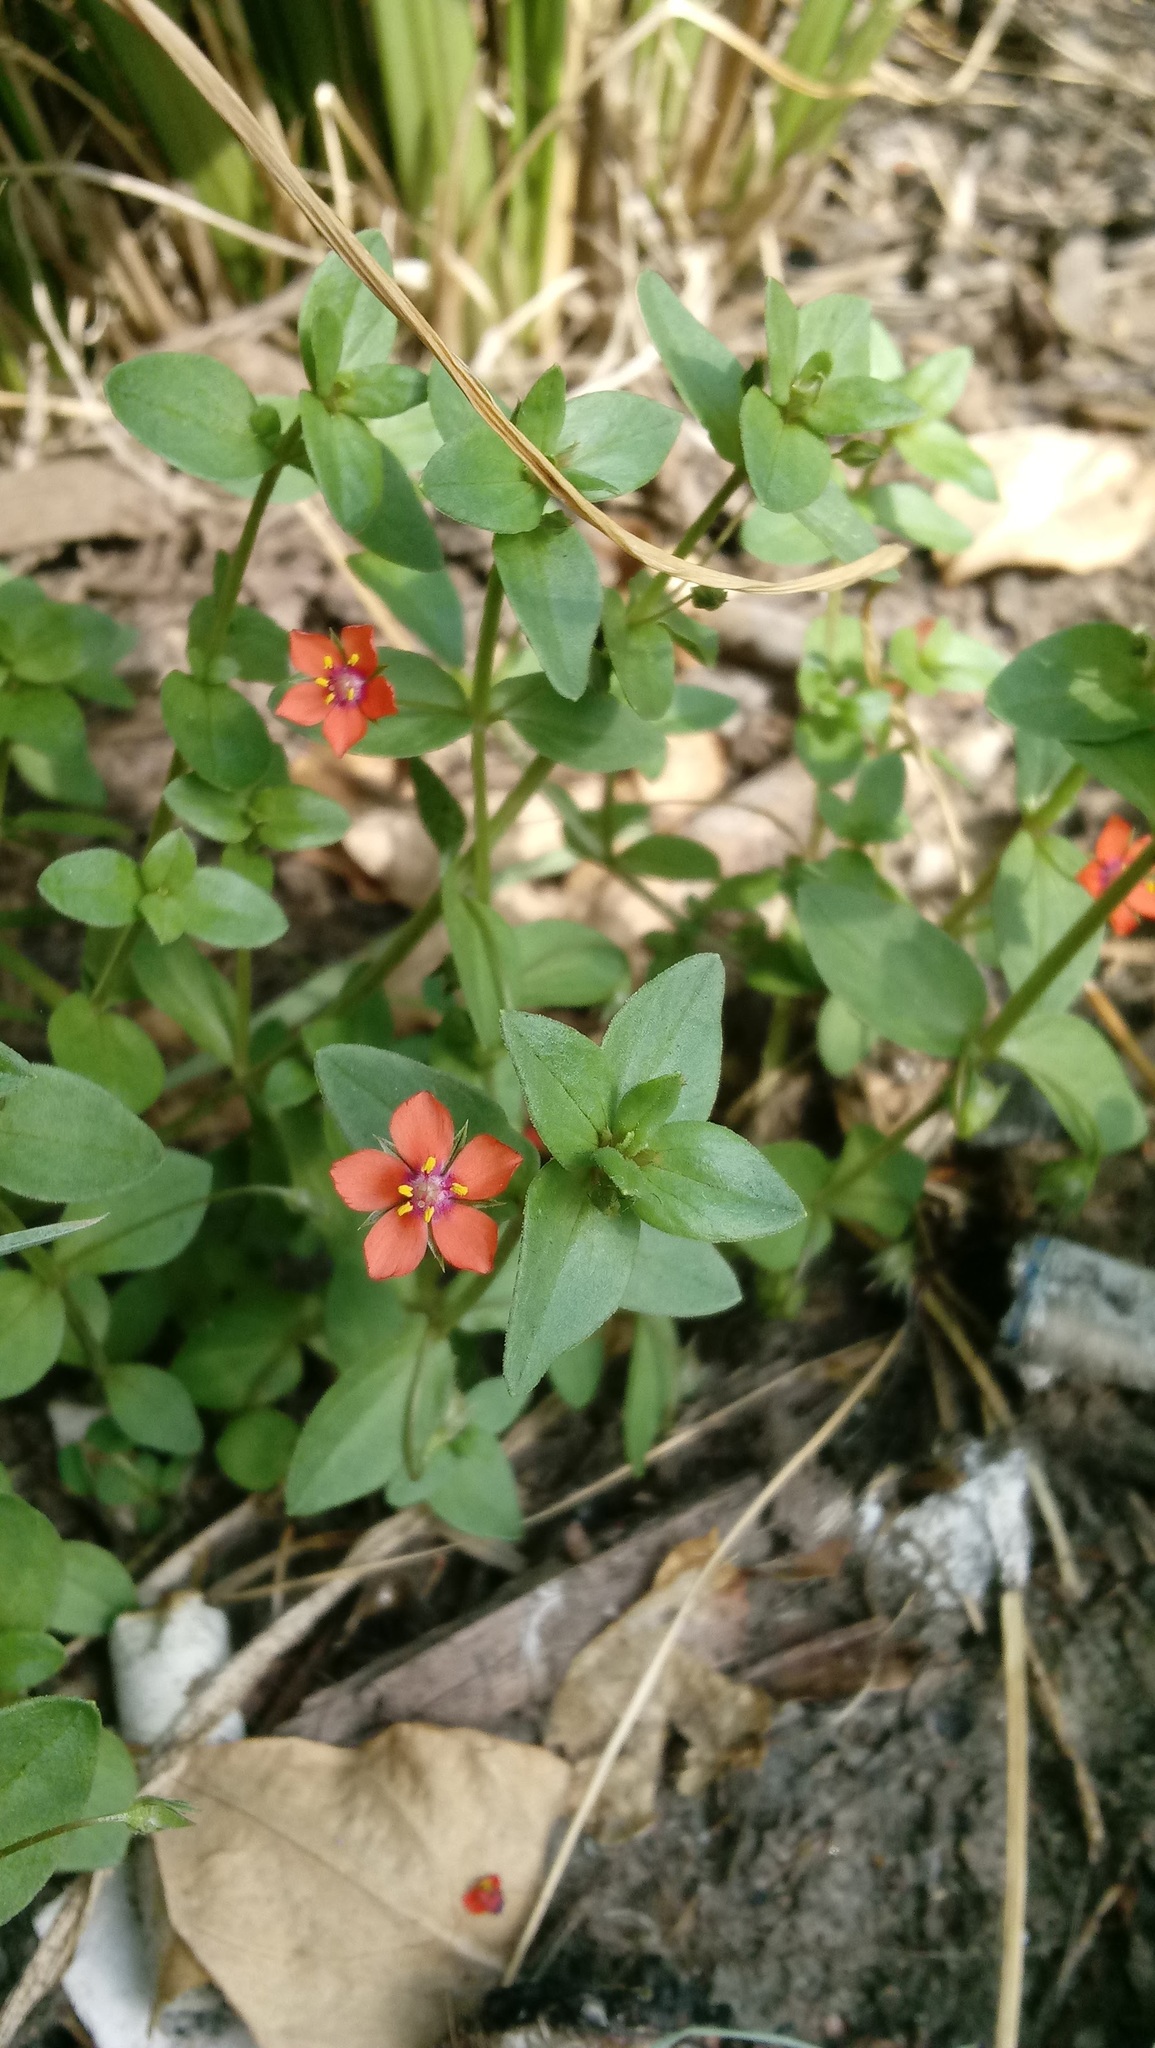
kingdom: Plantae
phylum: Tracheophyta
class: Magnoliopsida
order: Ericales
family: Primulaceae
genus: Lysimachia
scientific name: Lysimachia arvensis
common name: Scarlet pimpernel
